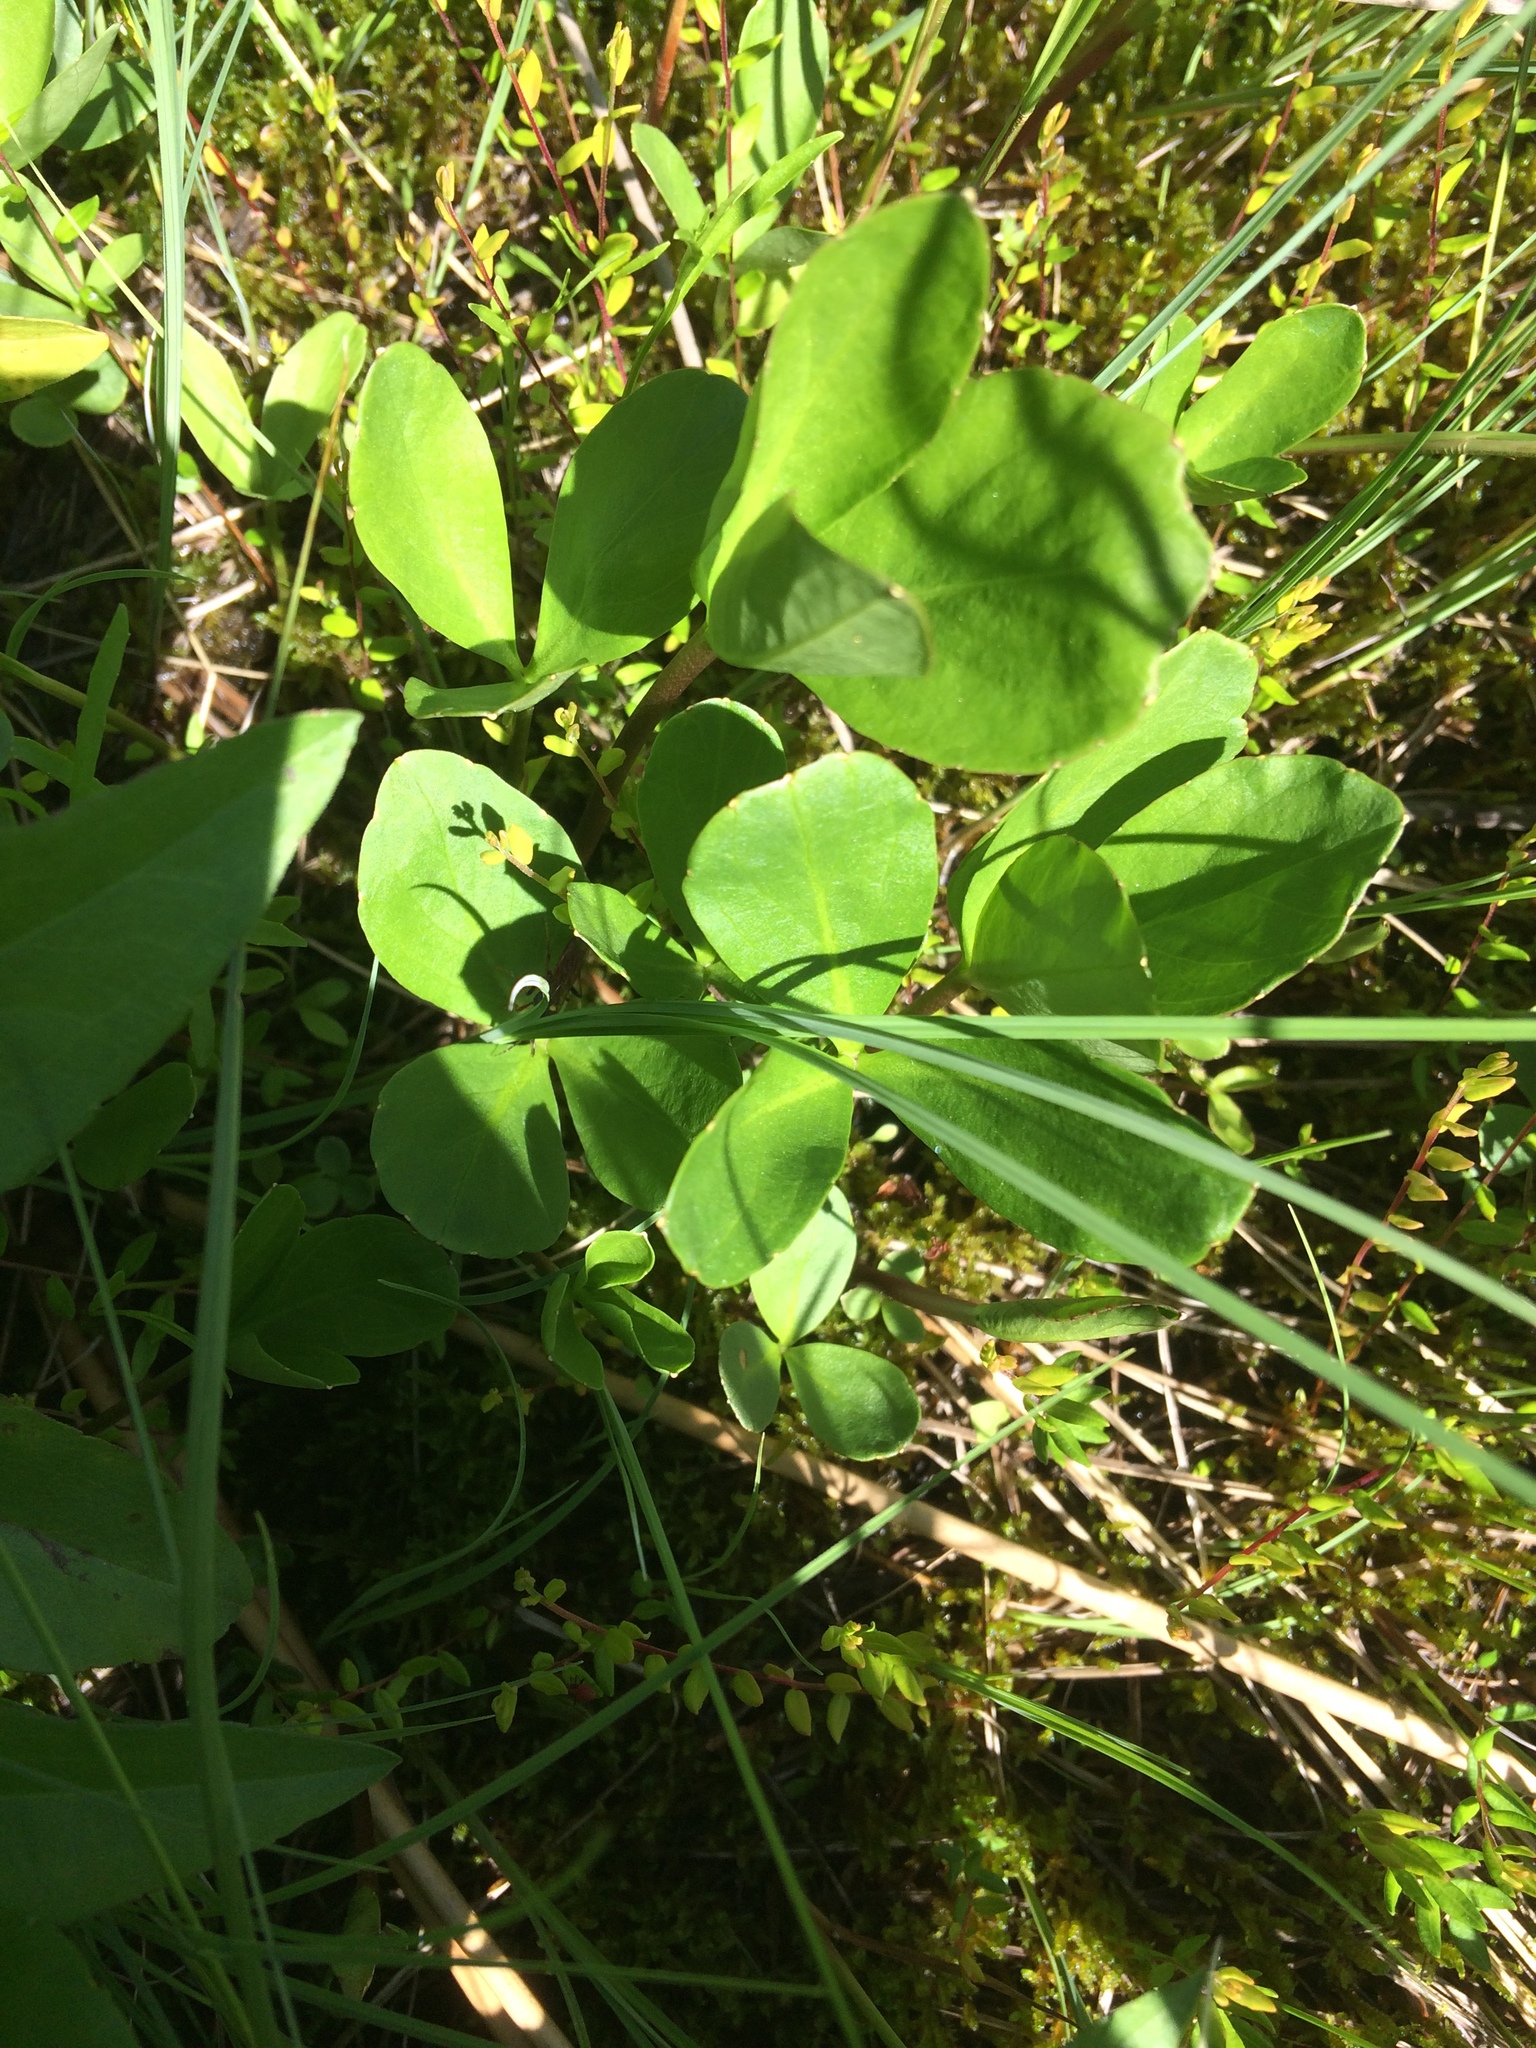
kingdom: Plantae
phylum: Tracheophyta
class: Magnoliopsida
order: Asterales
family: Menyanthaceae
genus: Menyanthes
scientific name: Menyanthes trifoliata
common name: Bogbean
